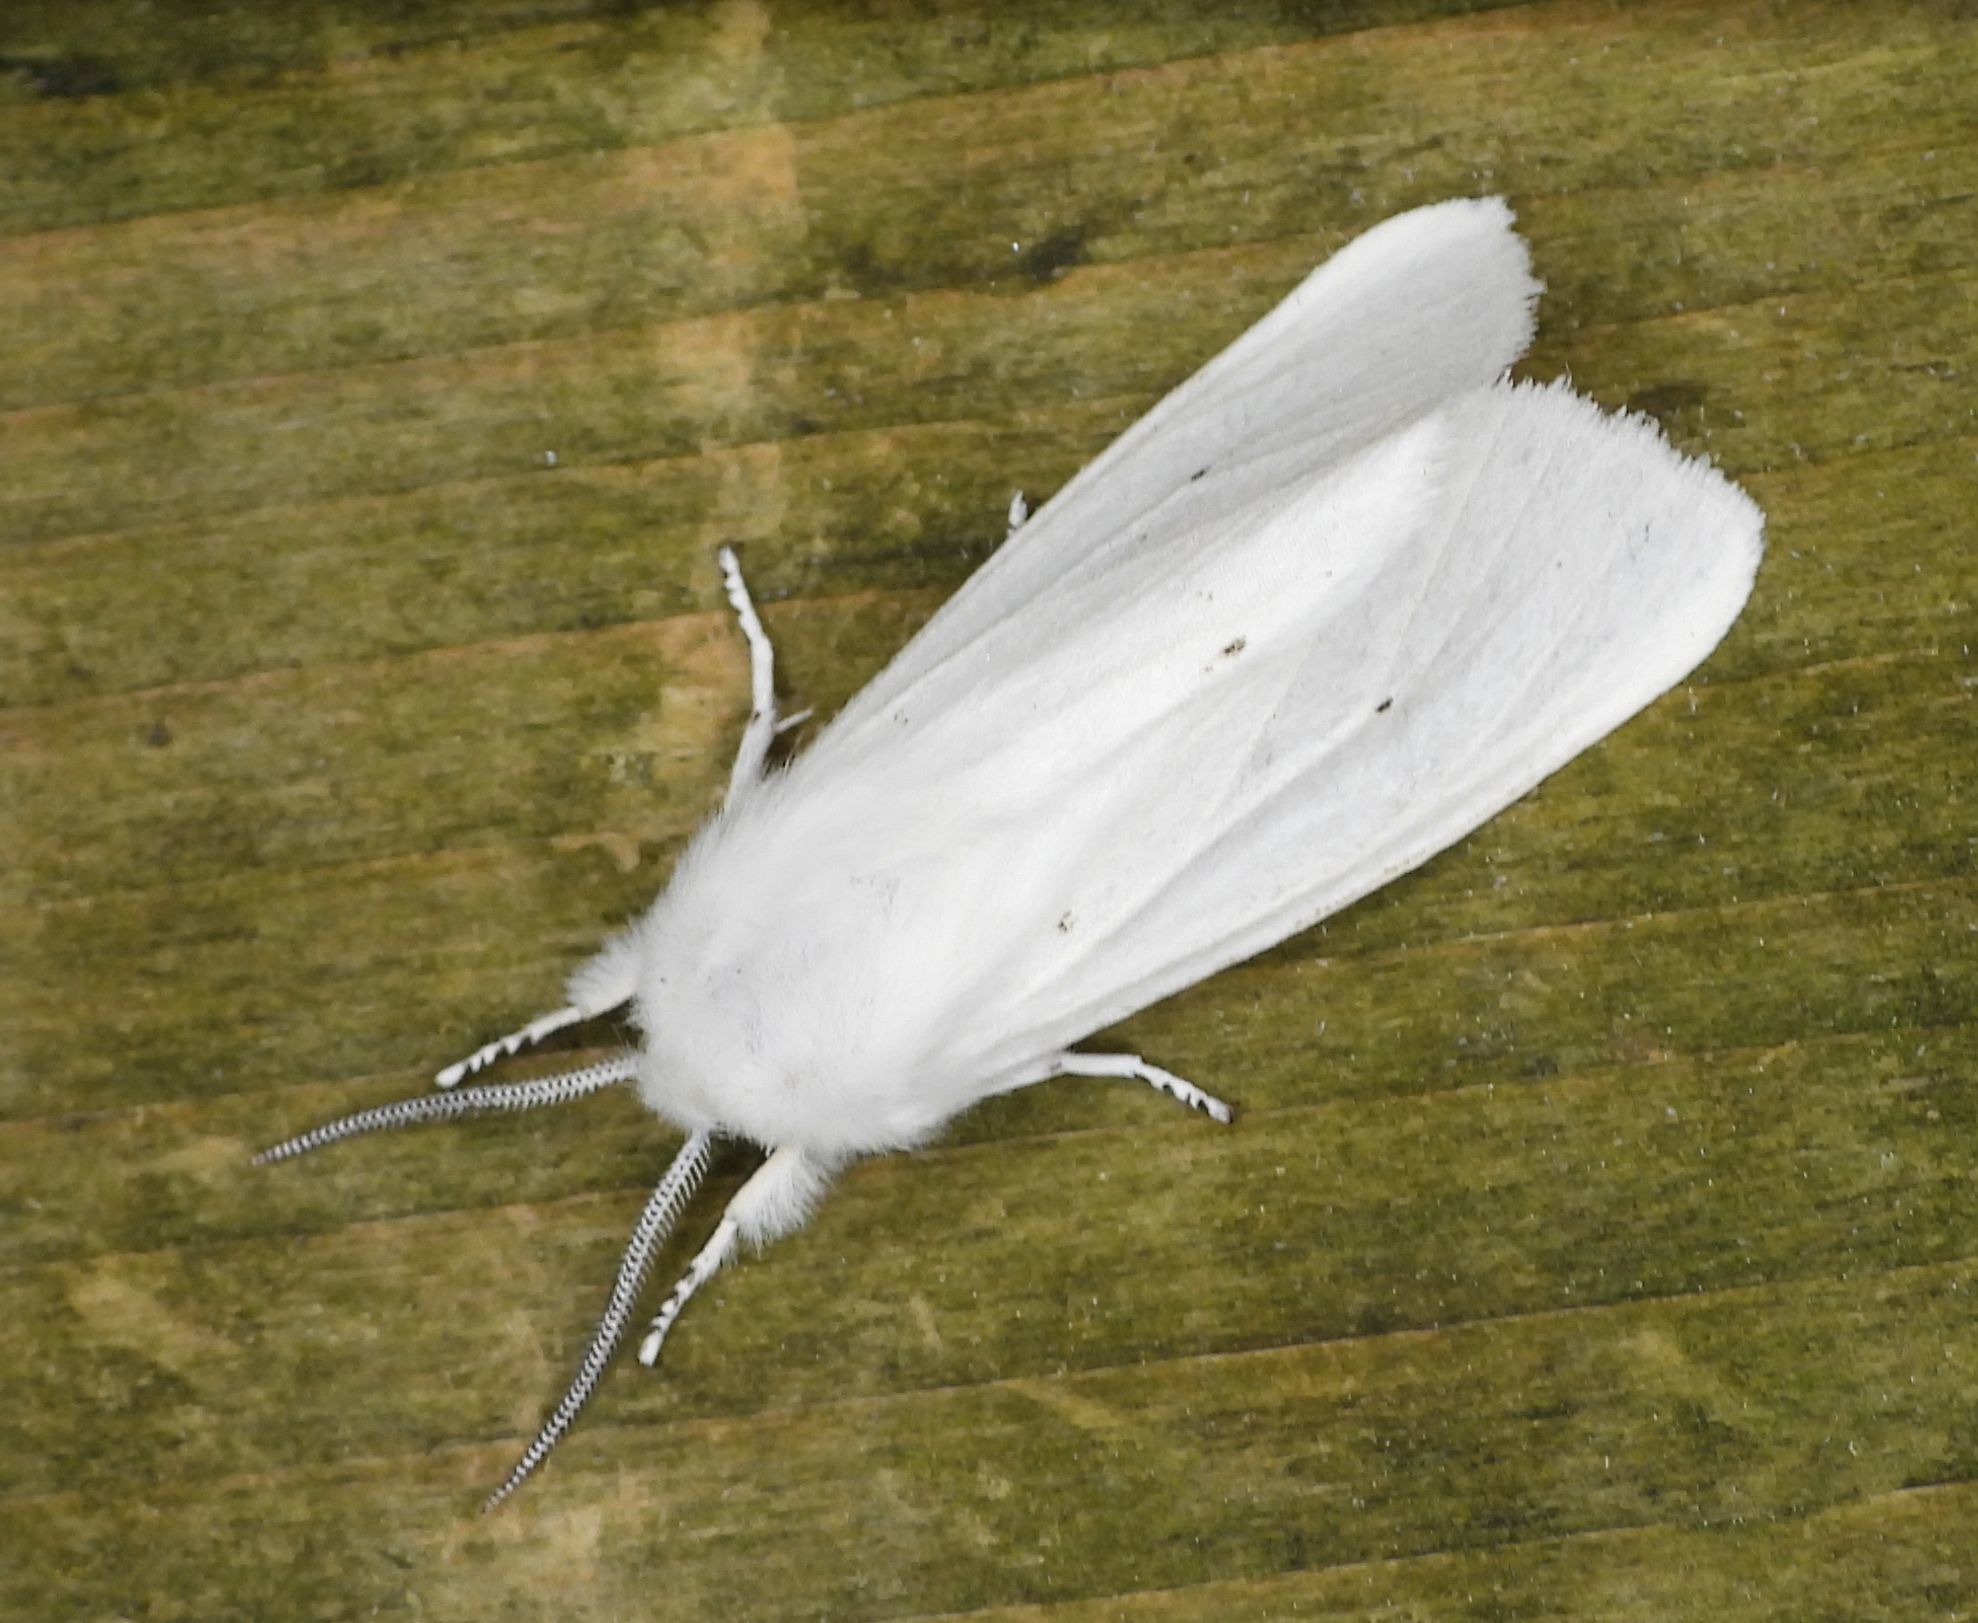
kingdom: Animalia
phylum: Arthropoda
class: Insecta
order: Lepidoptera
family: Erebidae
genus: Spilosoma
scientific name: Spilosoma virginica
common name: Virginia tiger moth
